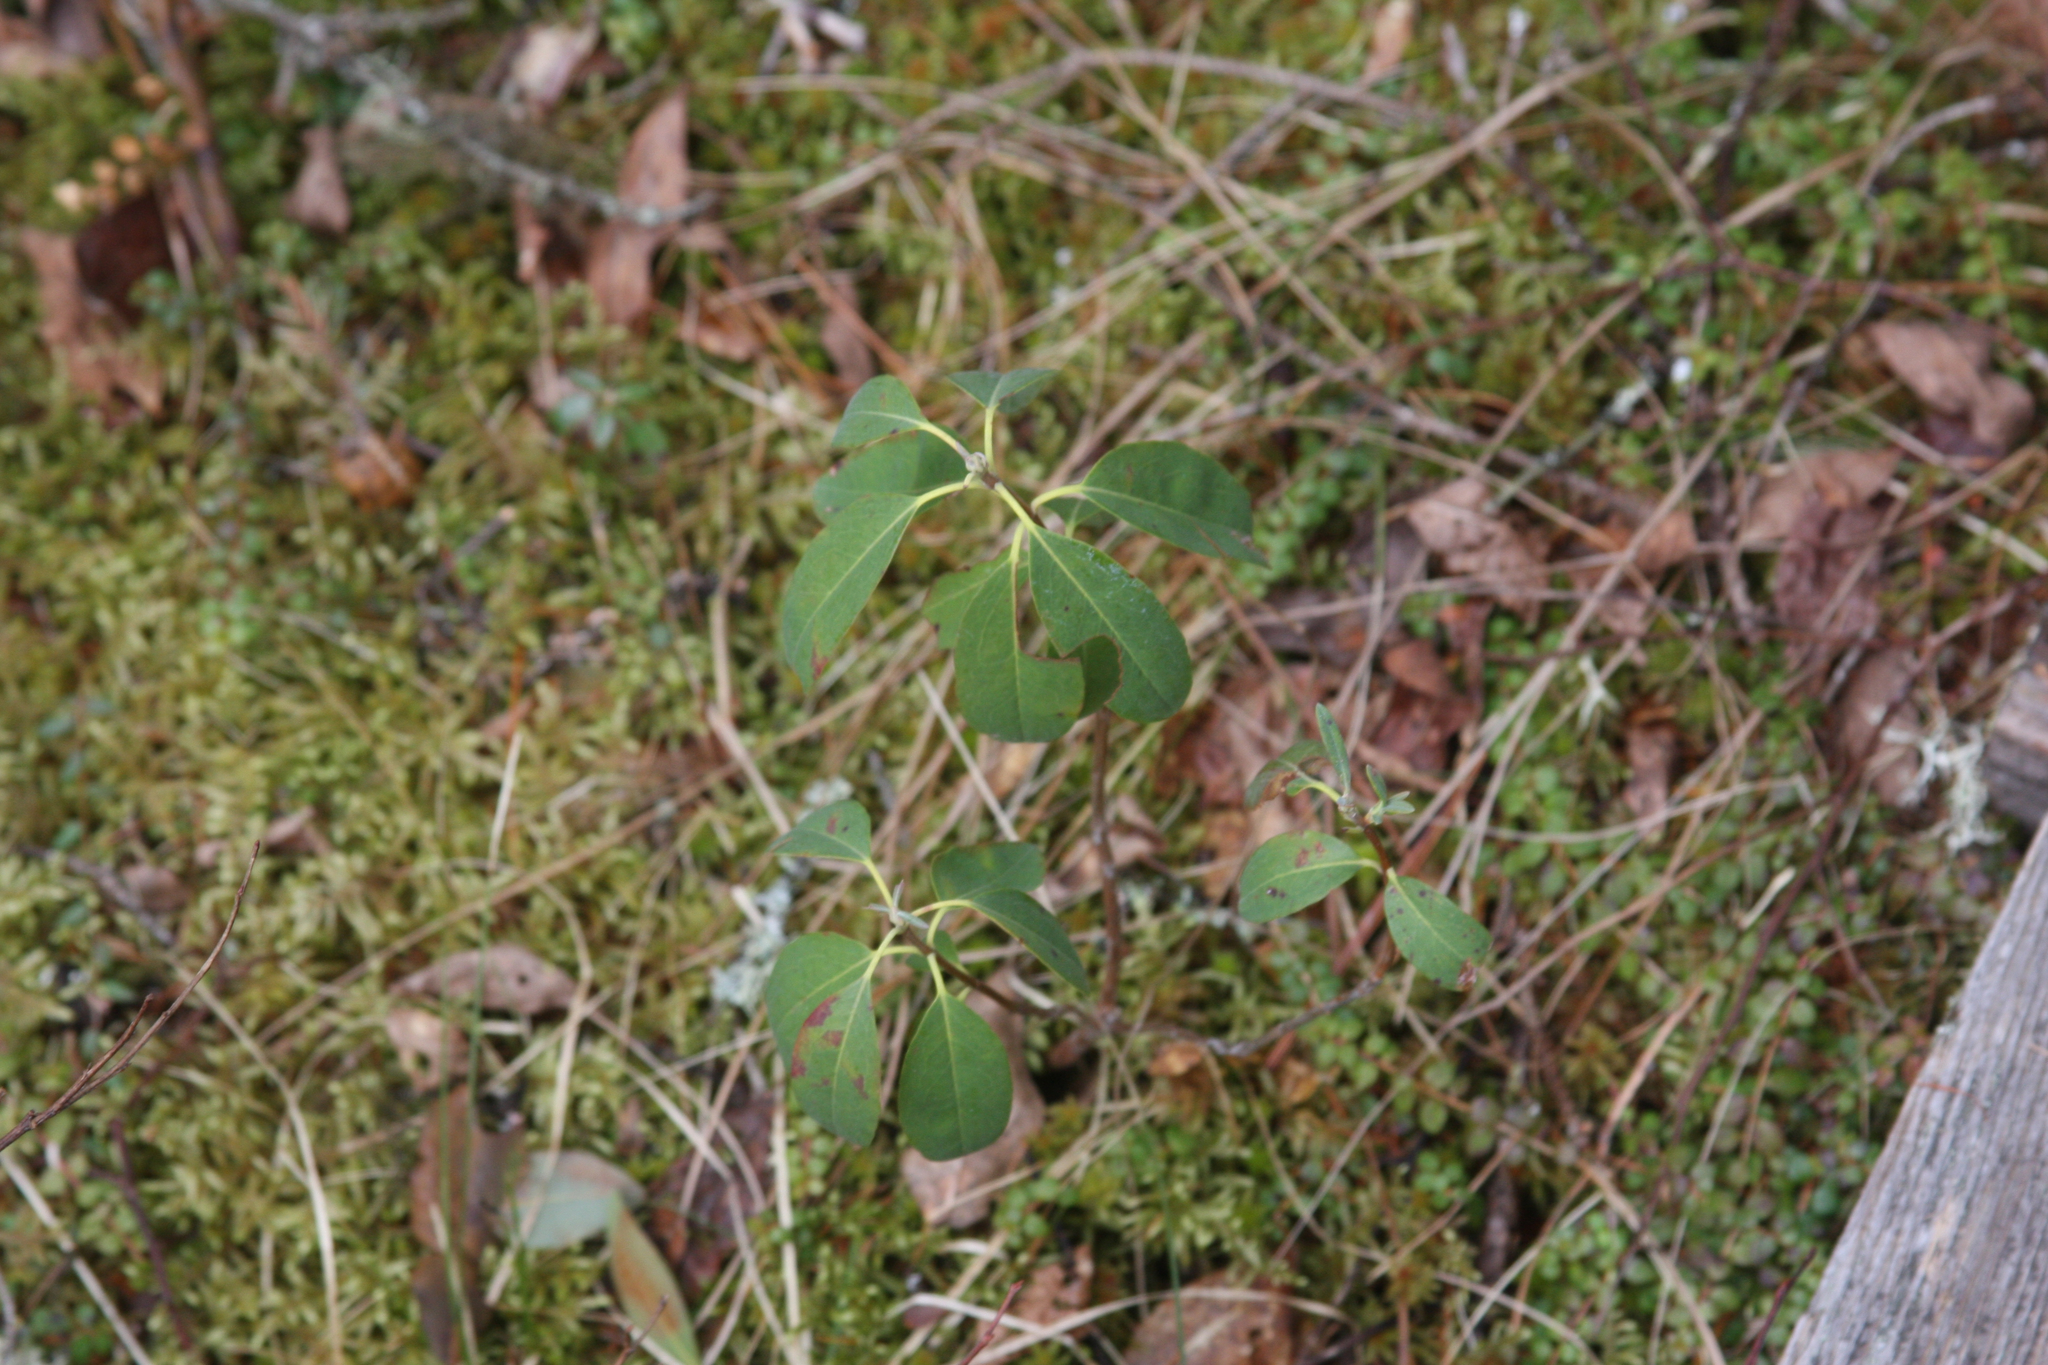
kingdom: Plantae
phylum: Tracheophyta
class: Magnoliopsida
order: Ericales
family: Ericaceae
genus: Kalmia
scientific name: Kalmia angustifolia
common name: Sheep-laurel
